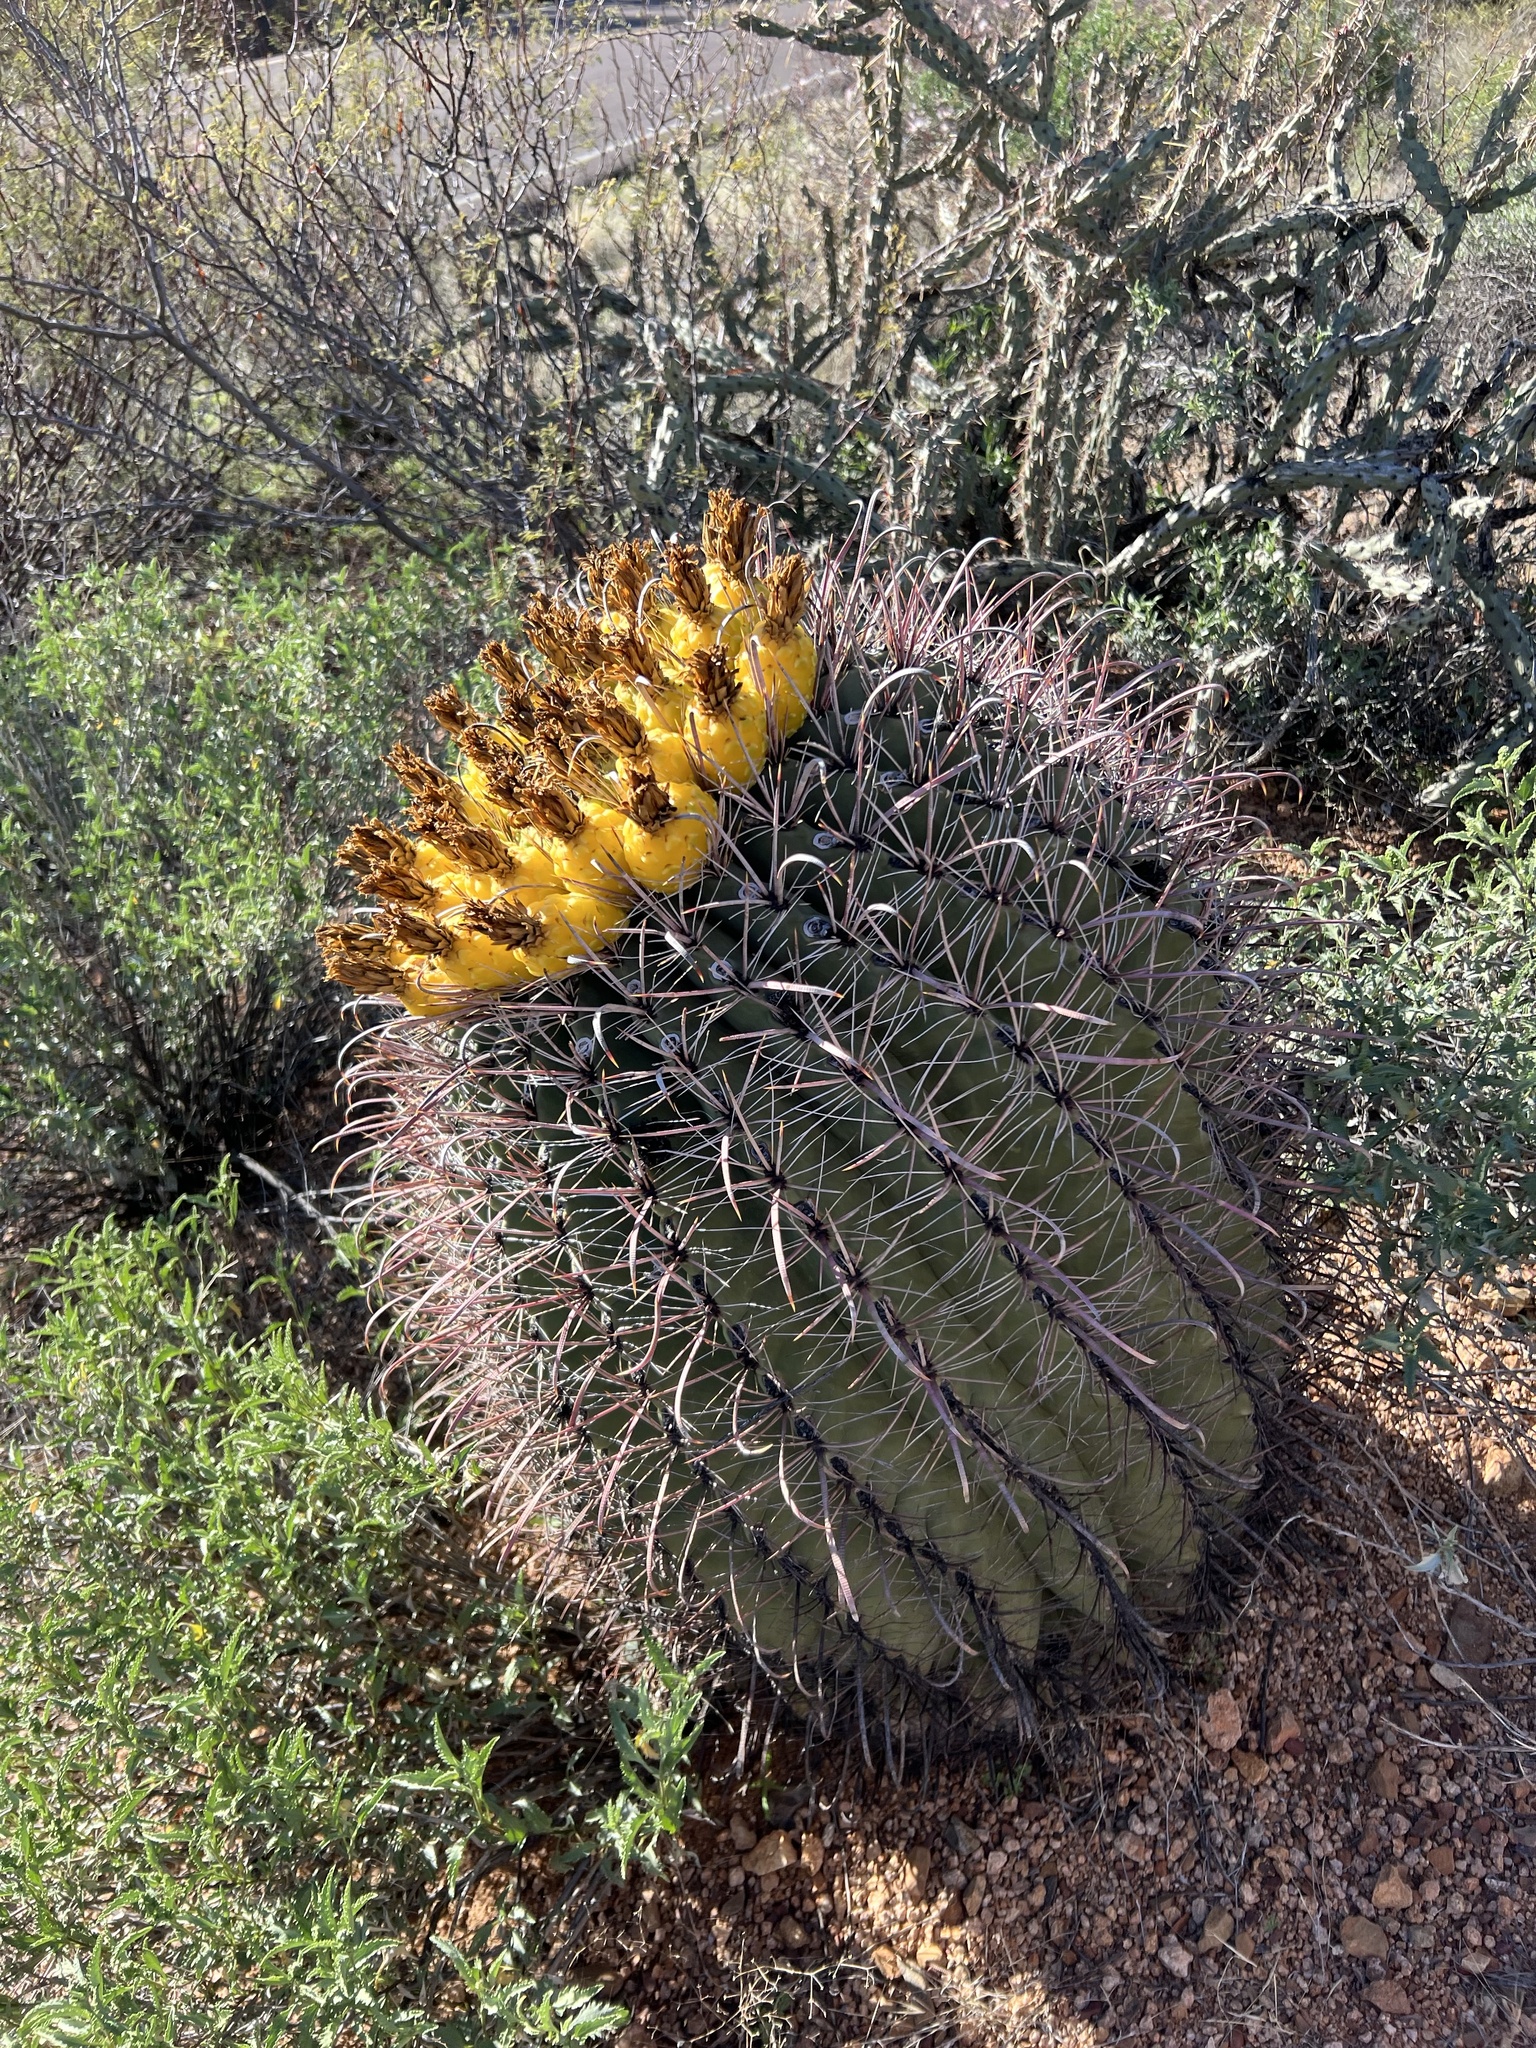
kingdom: Plantae
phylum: Tracheophyta
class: Magnoliopsida
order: Caryophyllales
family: Cactaceae
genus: Ferocactus
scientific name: Ferocactus wislizeni
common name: Candy barrel cactus
